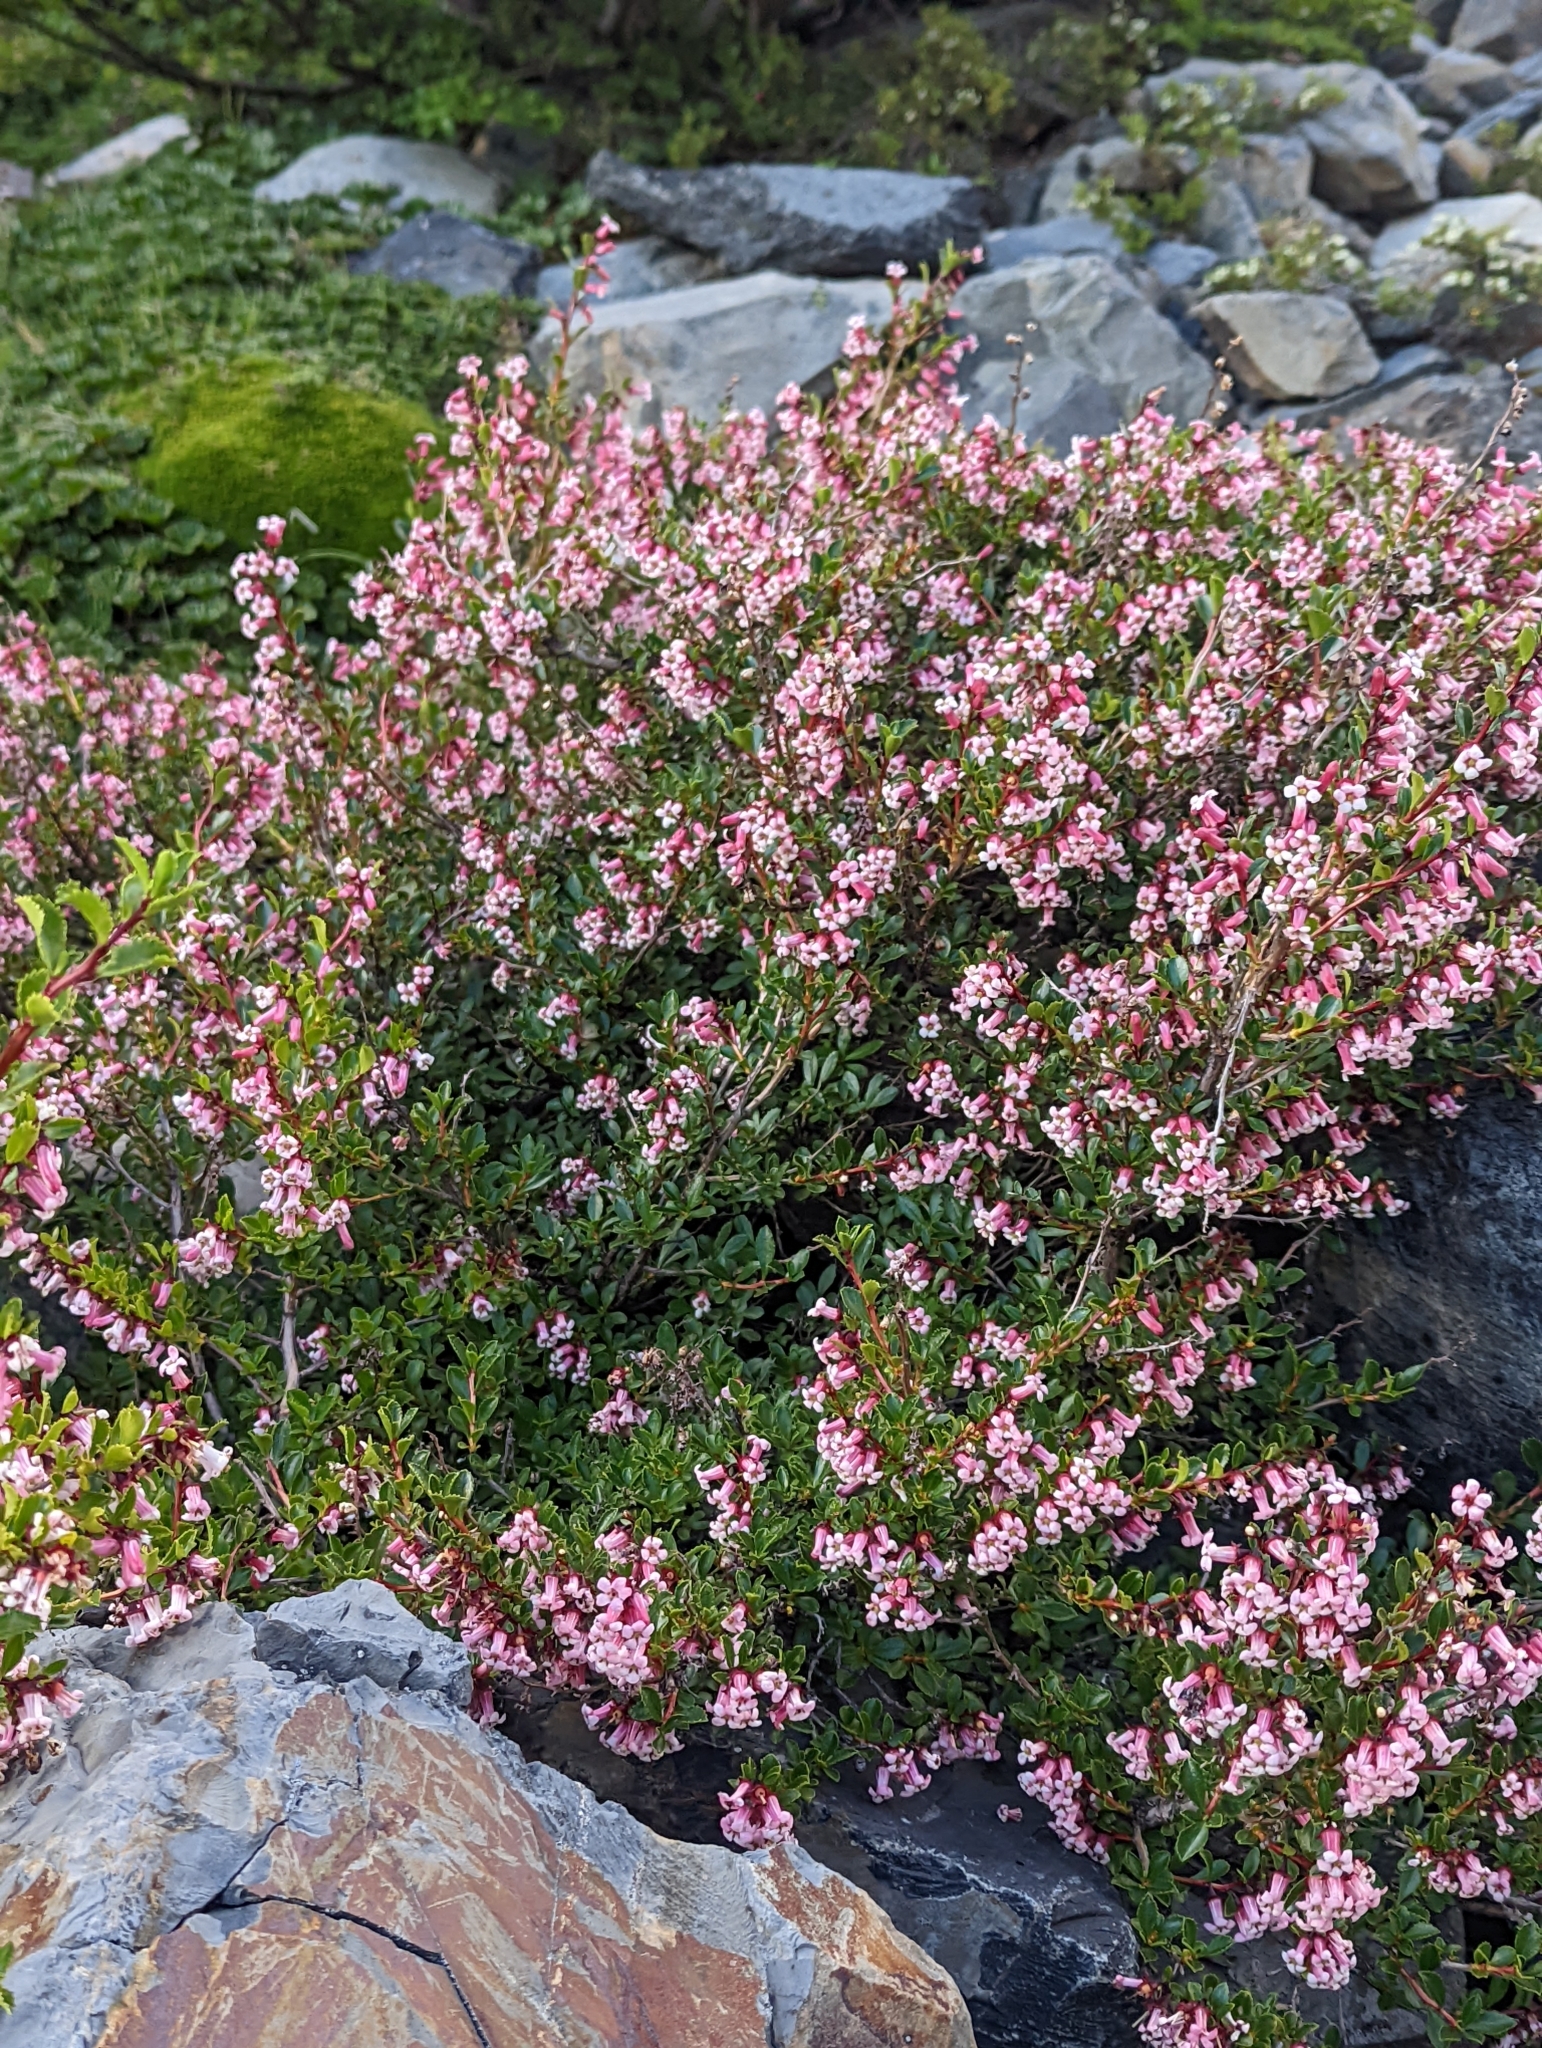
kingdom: Plantae
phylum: Tracheophyta
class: Magnoliopsida
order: Escalloniales
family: Escalloniaceae
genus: Escallonia
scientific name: Escallonia rubra
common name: Redclaws
